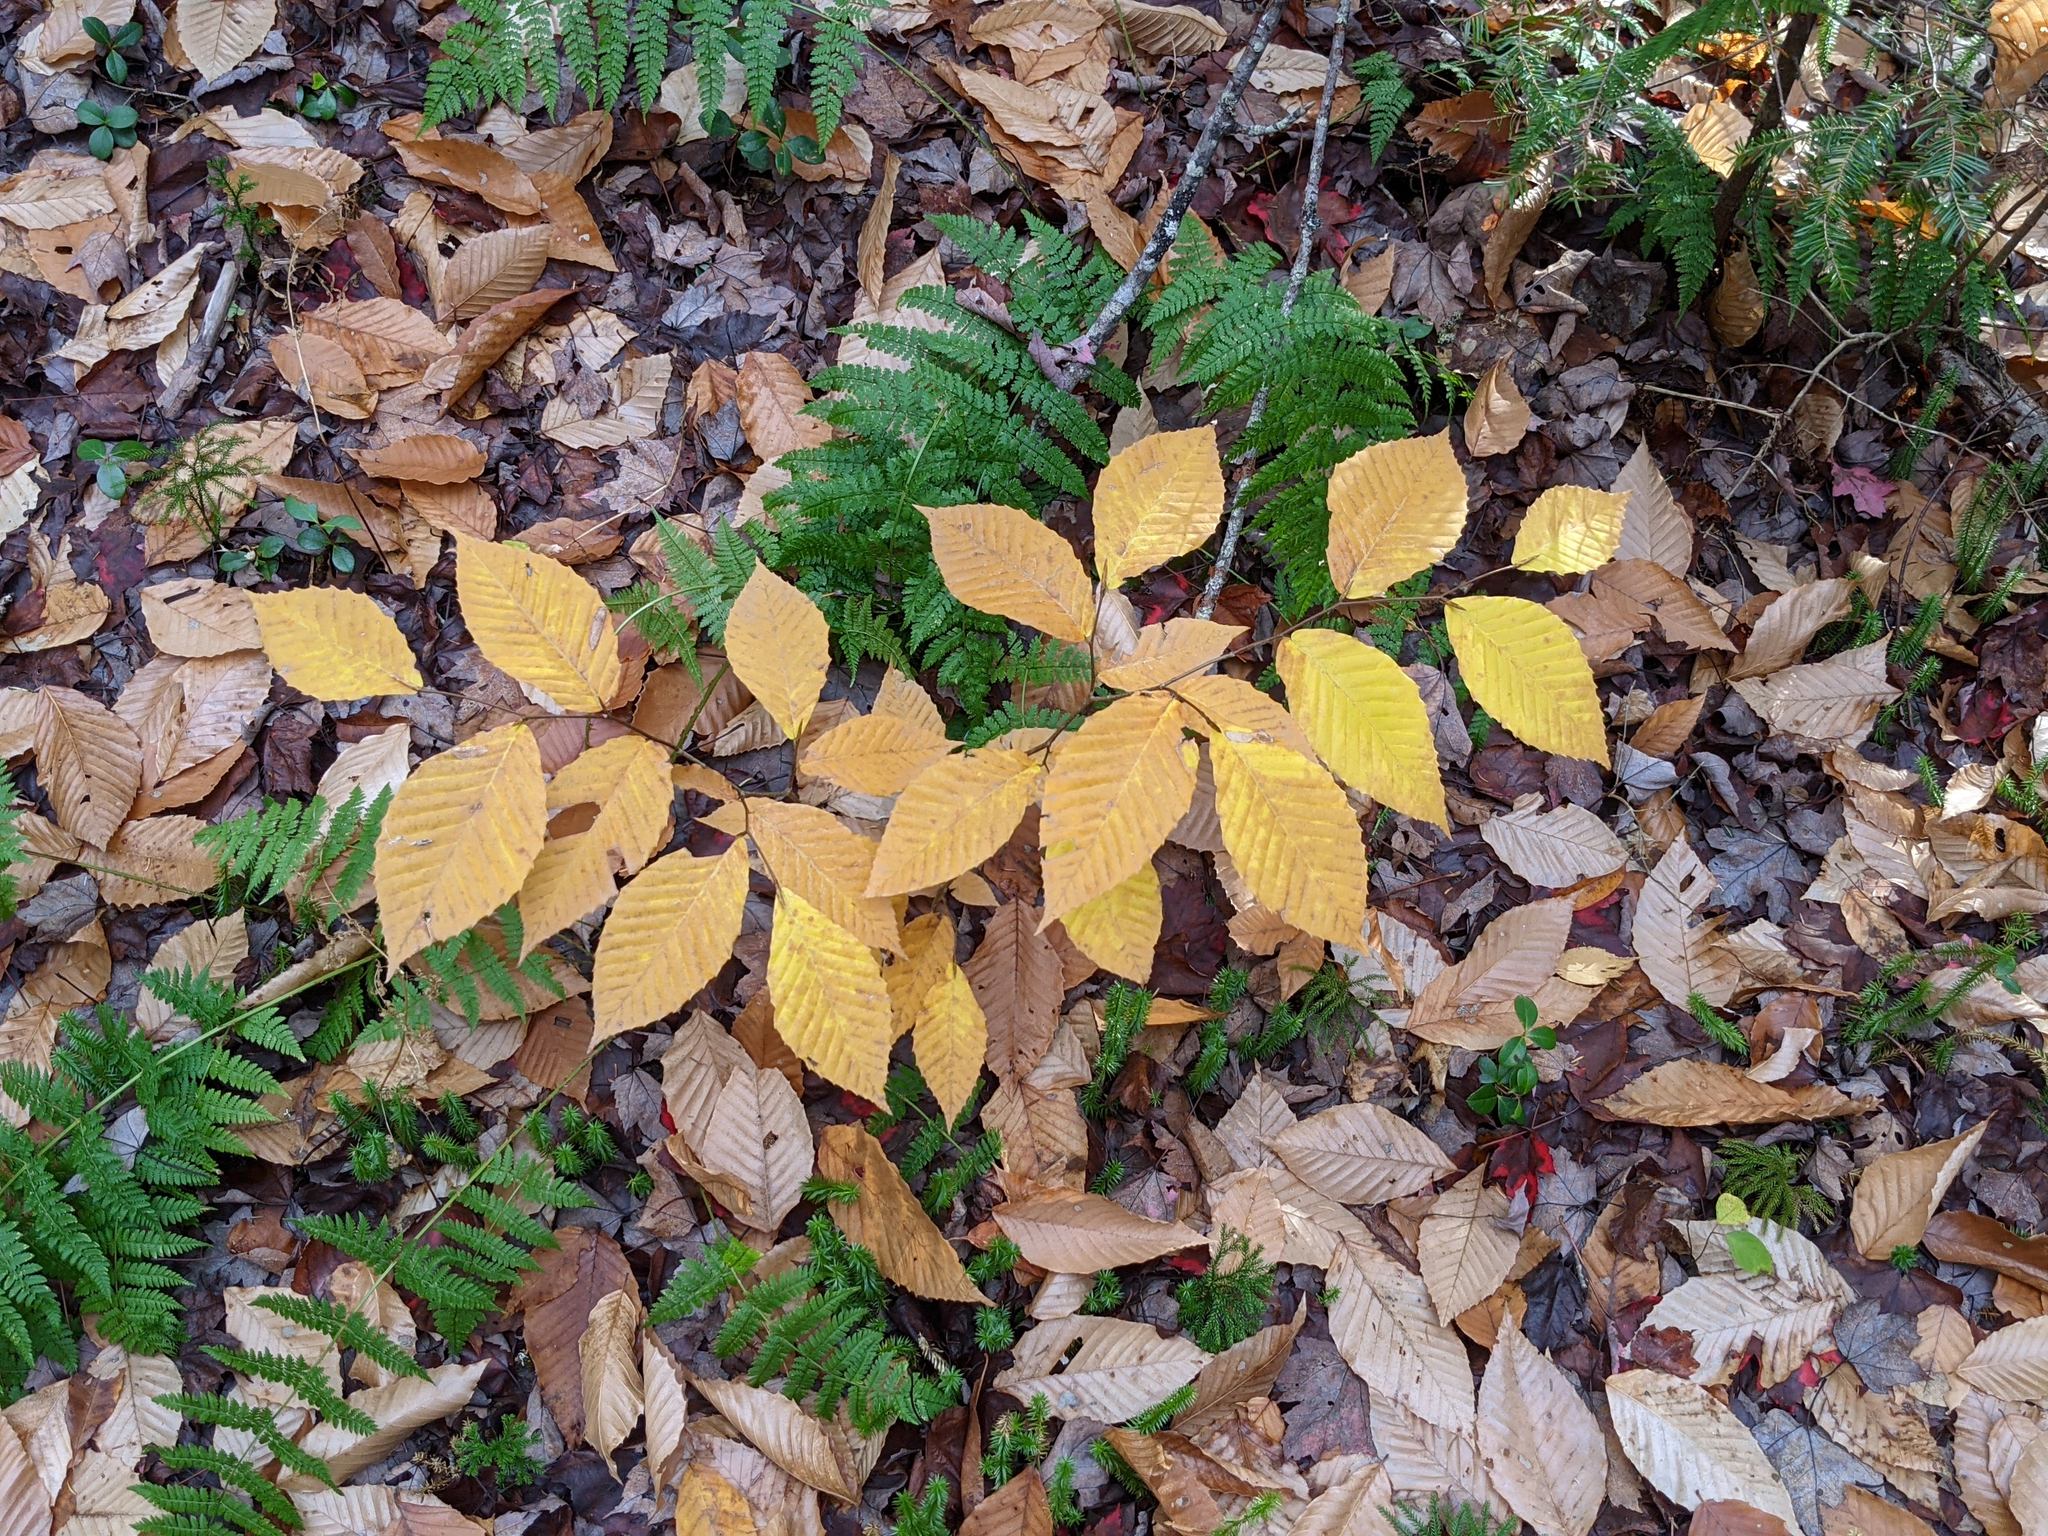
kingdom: Plantae
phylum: Tracheophyta
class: Magnoliopsida
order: Fagales
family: Fagaceae
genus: Fagus
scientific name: Fagus grandifolia
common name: American beech
